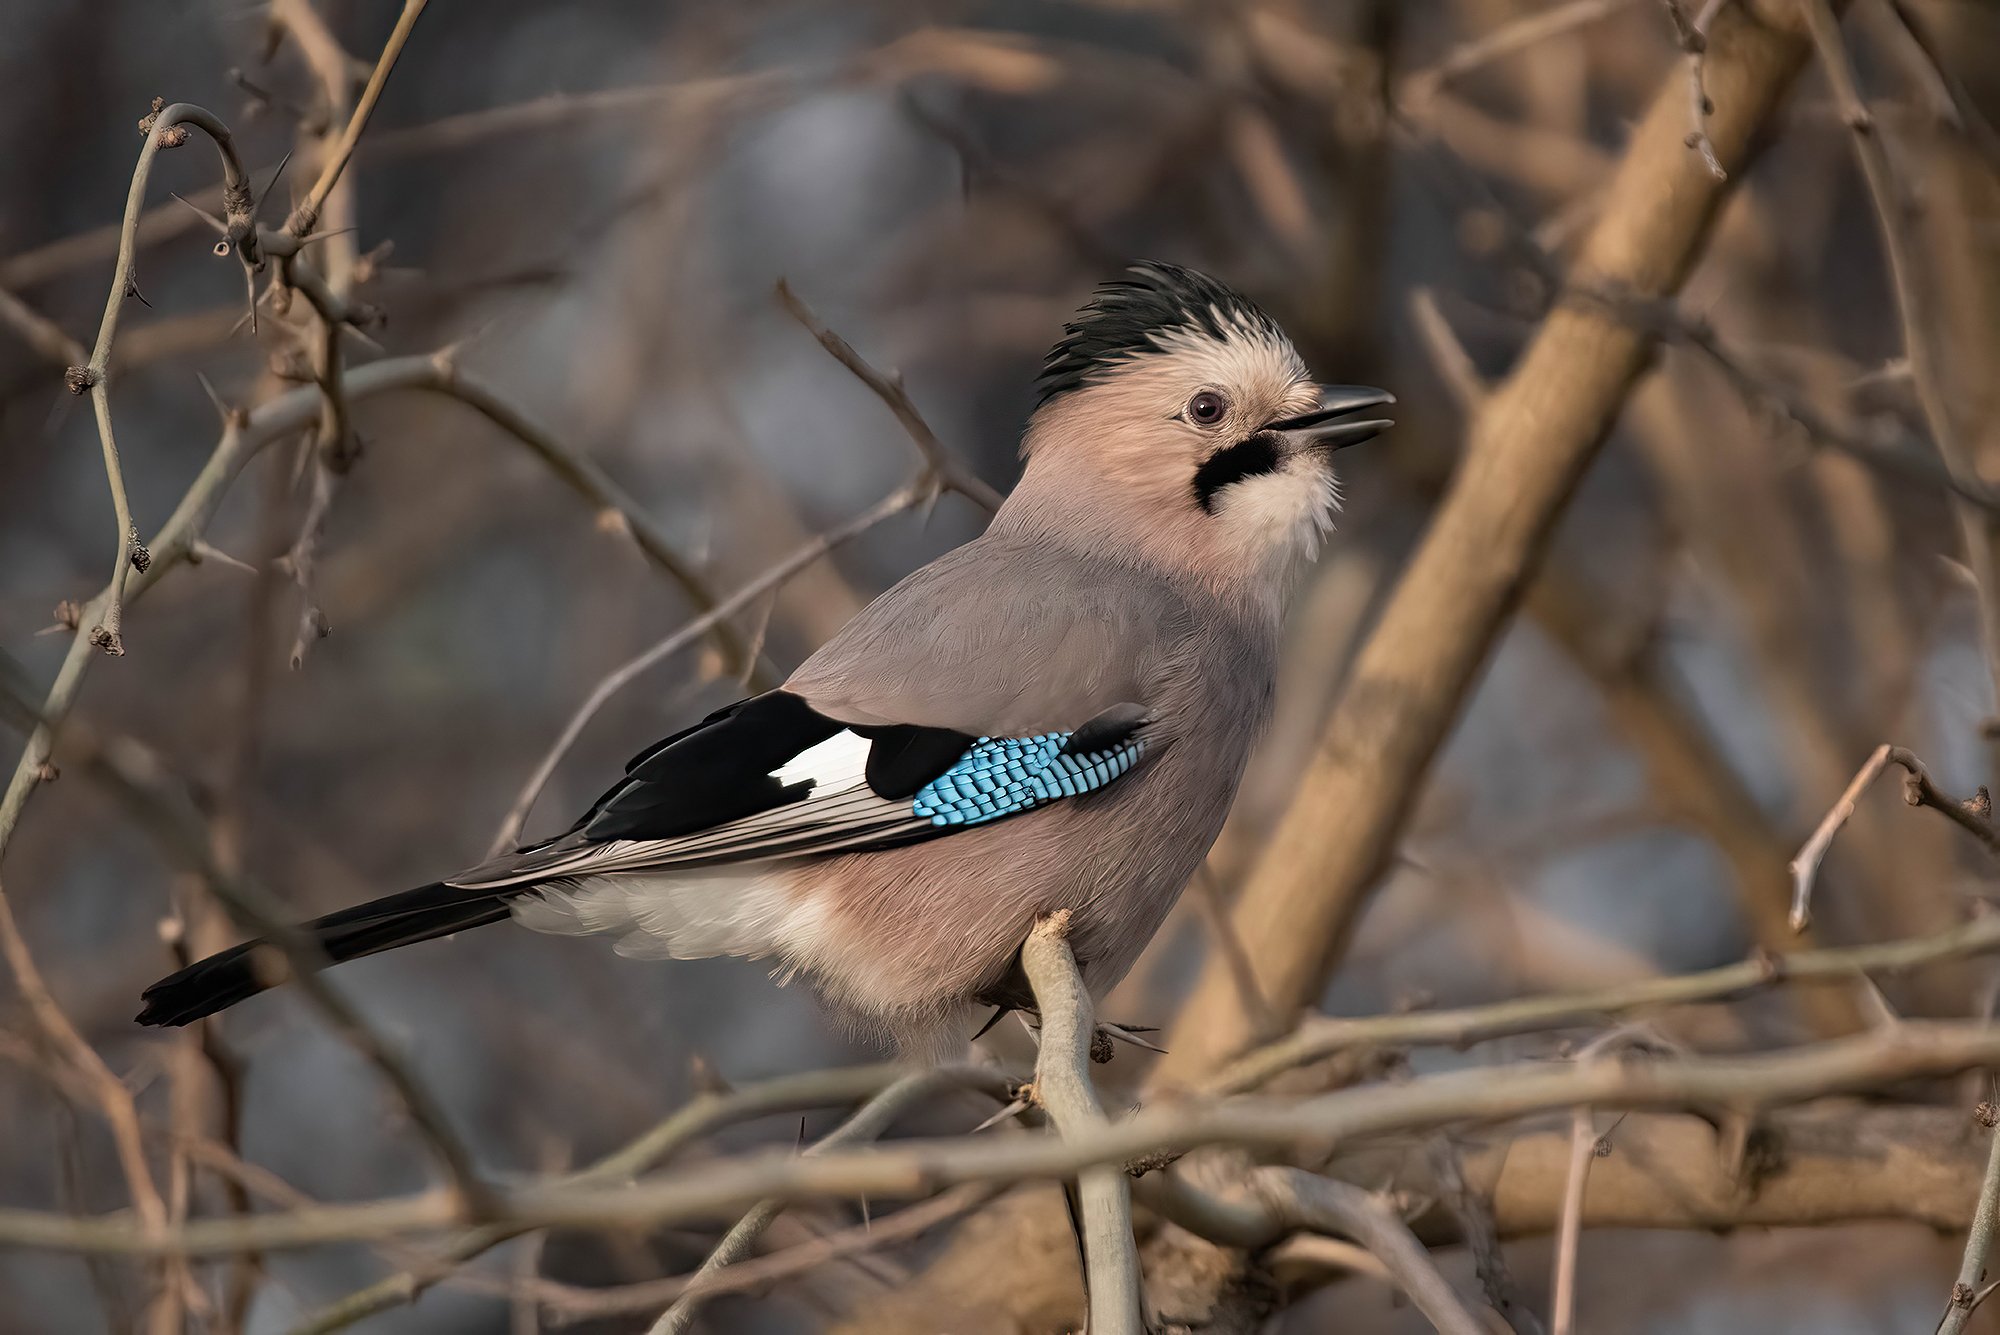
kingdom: Animalia
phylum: Chordata
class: Aves
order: Passeriformes
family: Corvidae
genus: Garrulus
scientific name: Garrulus glandarius
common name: Eurasian jay
